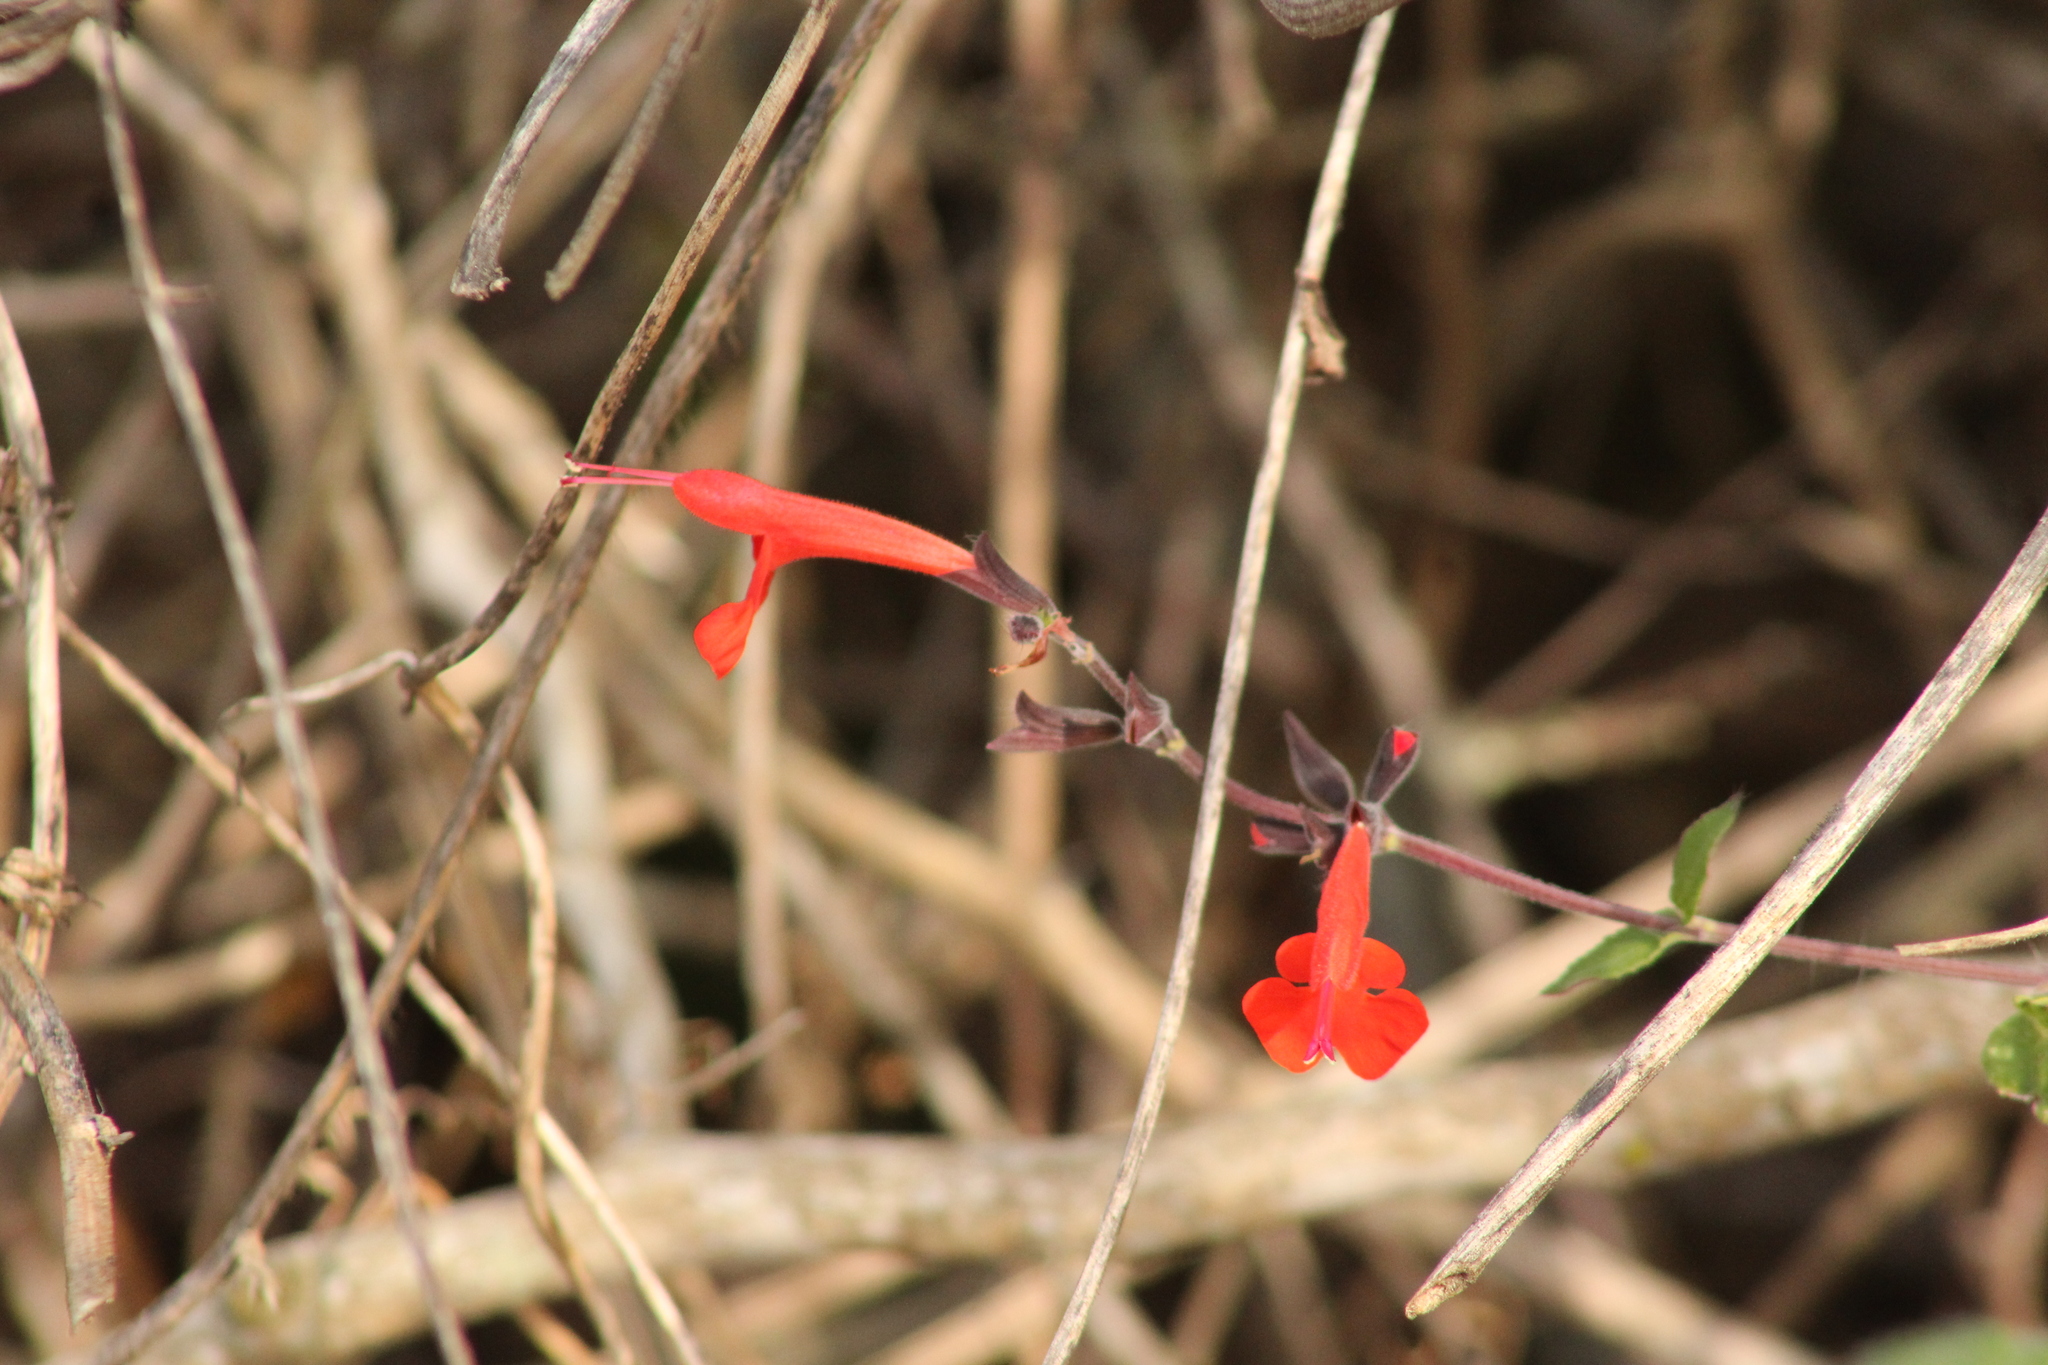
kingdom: Plantae
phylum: Tracheophyta
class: Magnoliopsida
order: Lamiales
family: Lamiaceae
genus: Salvia
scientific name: Salvia coccinea
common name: Blood sage
